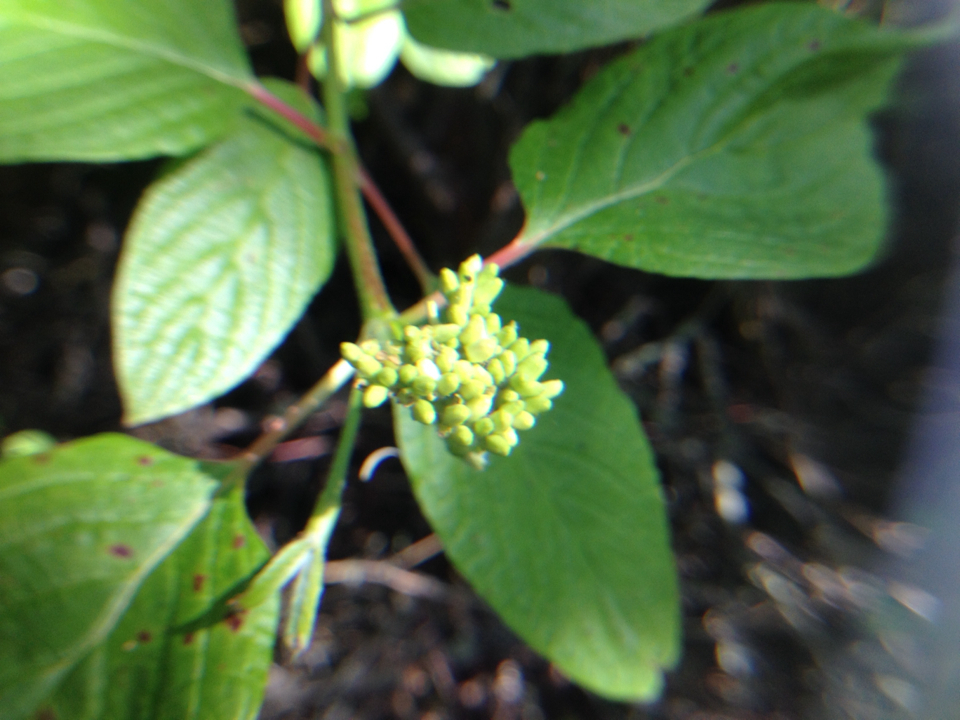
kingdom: Plantae
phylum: Tracheophyta
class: Magnoliopsida
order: Cornales
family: Cornaceae
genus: Cornus
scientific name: Cornus sericea
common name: Red-osier dogwood
